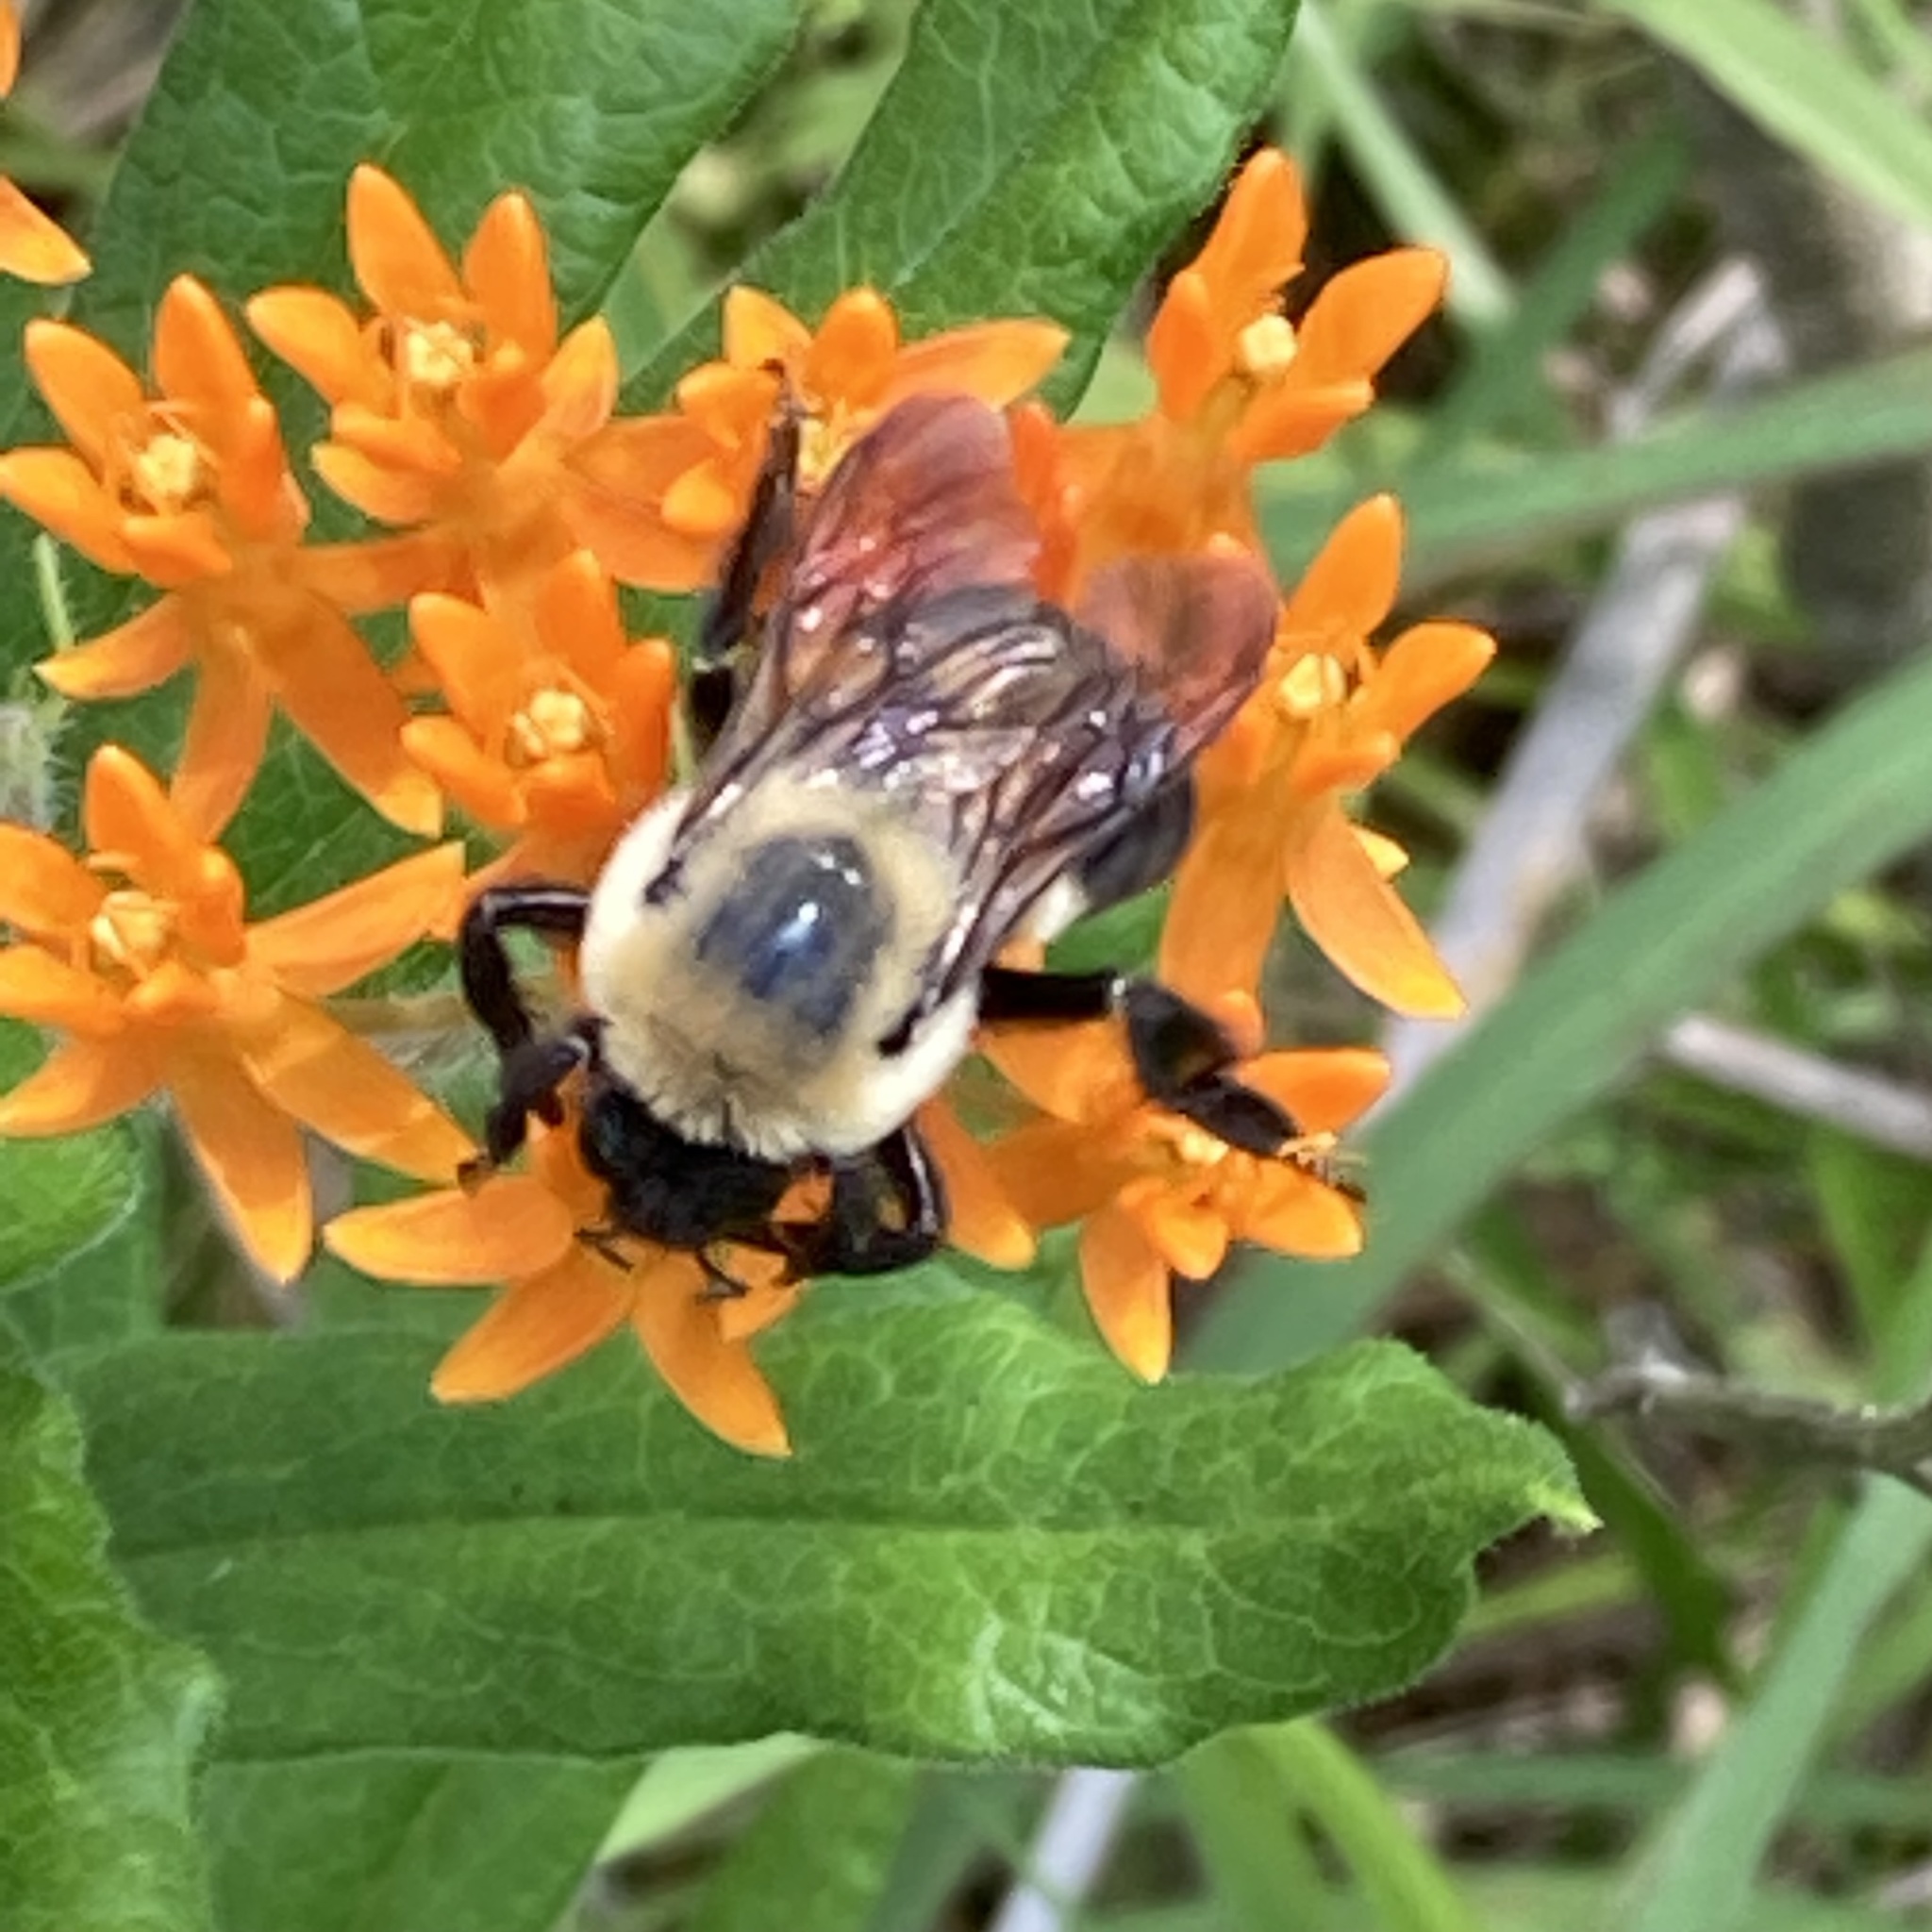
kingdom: Animalia
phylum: Arthropoda
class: Insecta
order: Hymenoptera
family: Apidae
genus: Bombus
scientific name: Bombus griseocollis
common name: Brown-belted bumble bee
